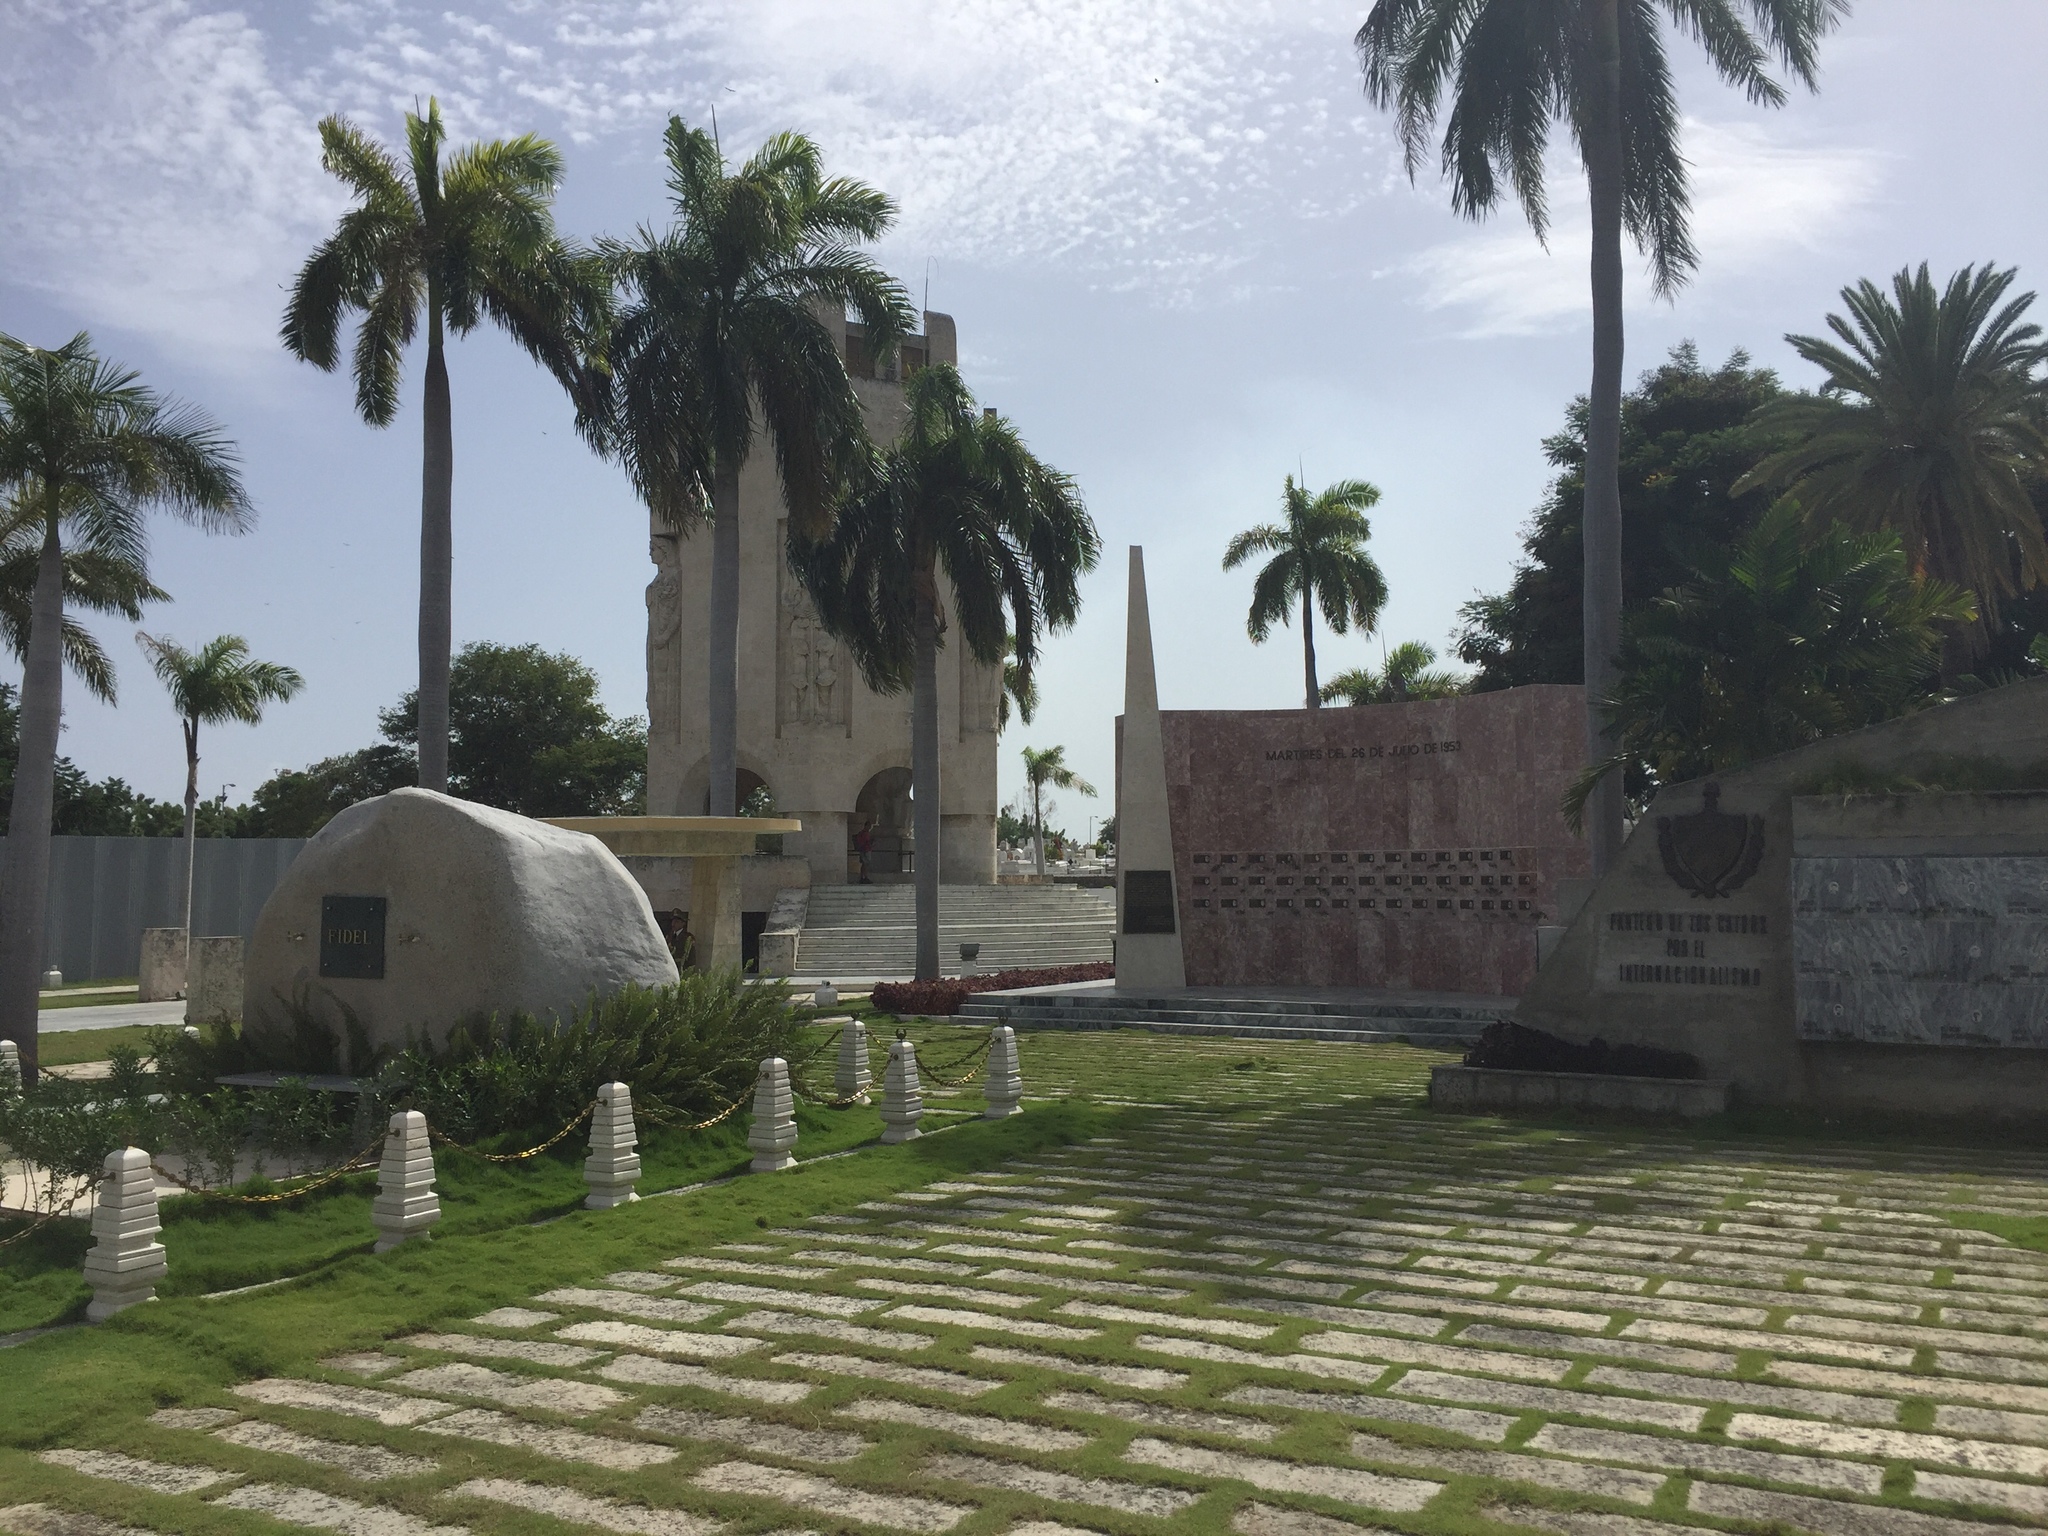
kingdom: Plantae
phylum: Tracheophyta
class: Liliopsida
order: Arecales
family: Arecaceae
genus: Roystonea
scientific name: Roystonea regia
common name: Florida royal palm
